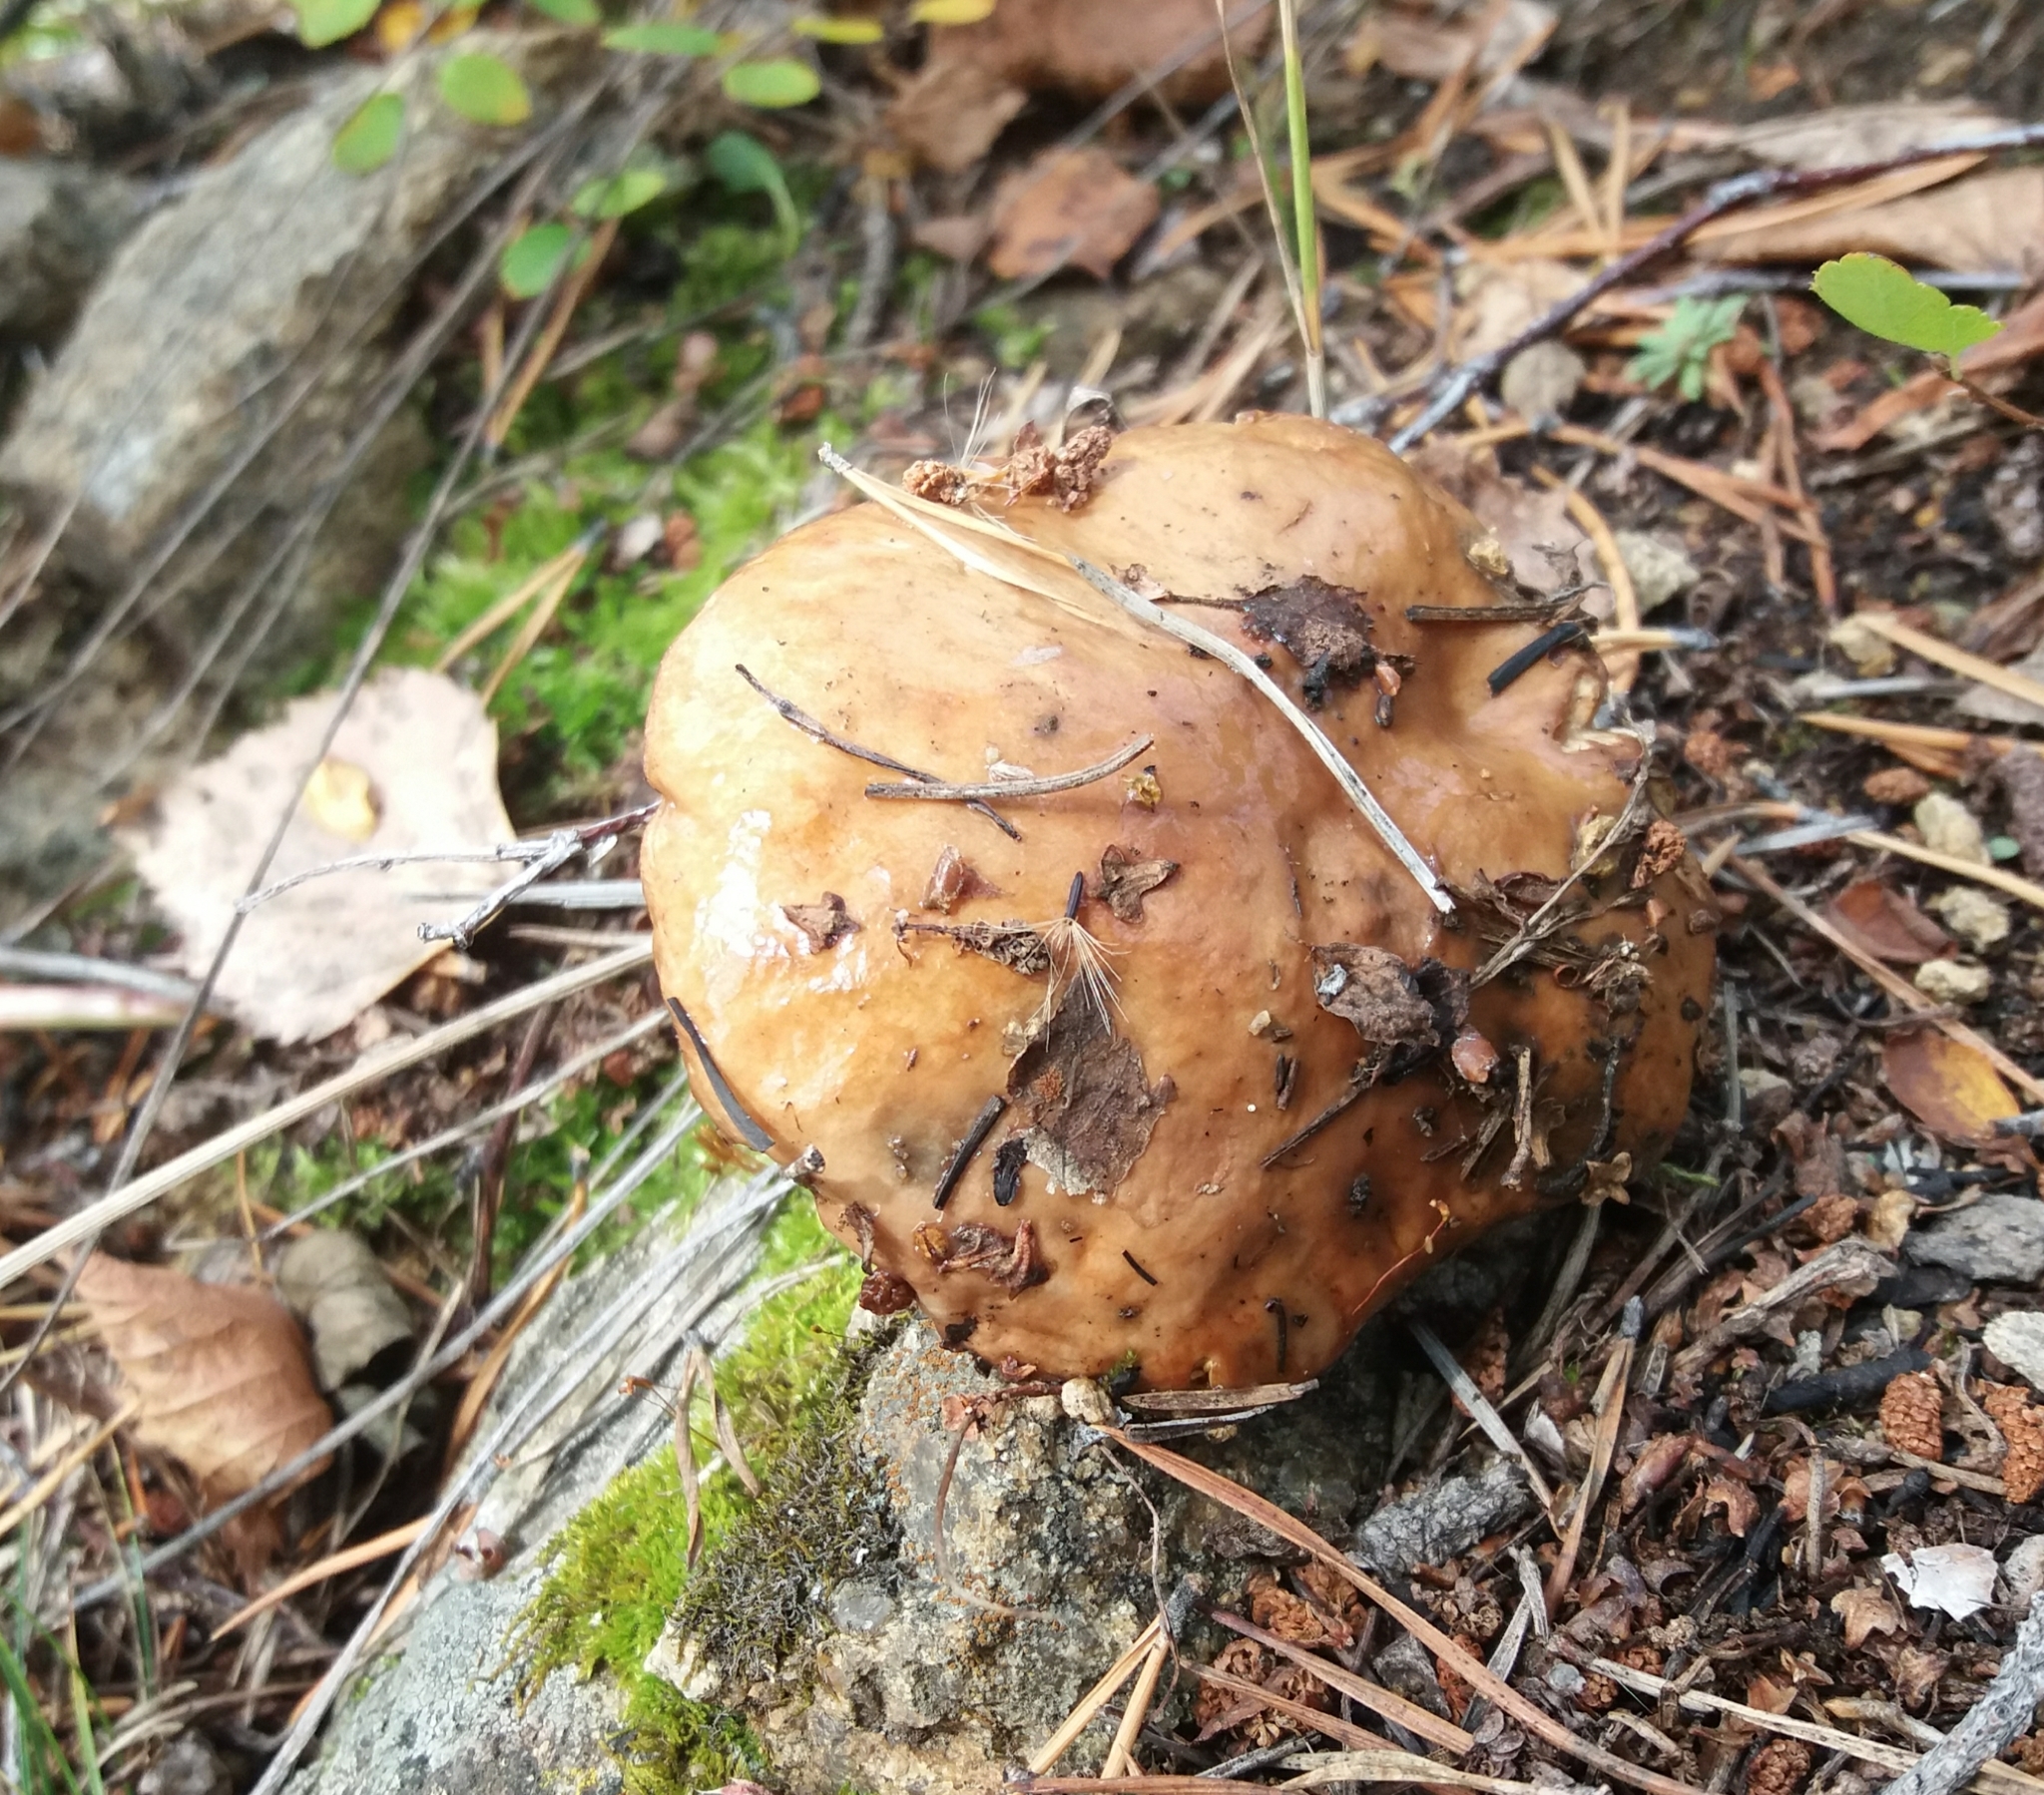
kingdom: Fungi
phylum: Basidiomycota
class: Agaricomycetes
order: Boletales
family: Suillaceae
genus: Suillus
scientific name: Suillus luteus
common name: Slippery jack
